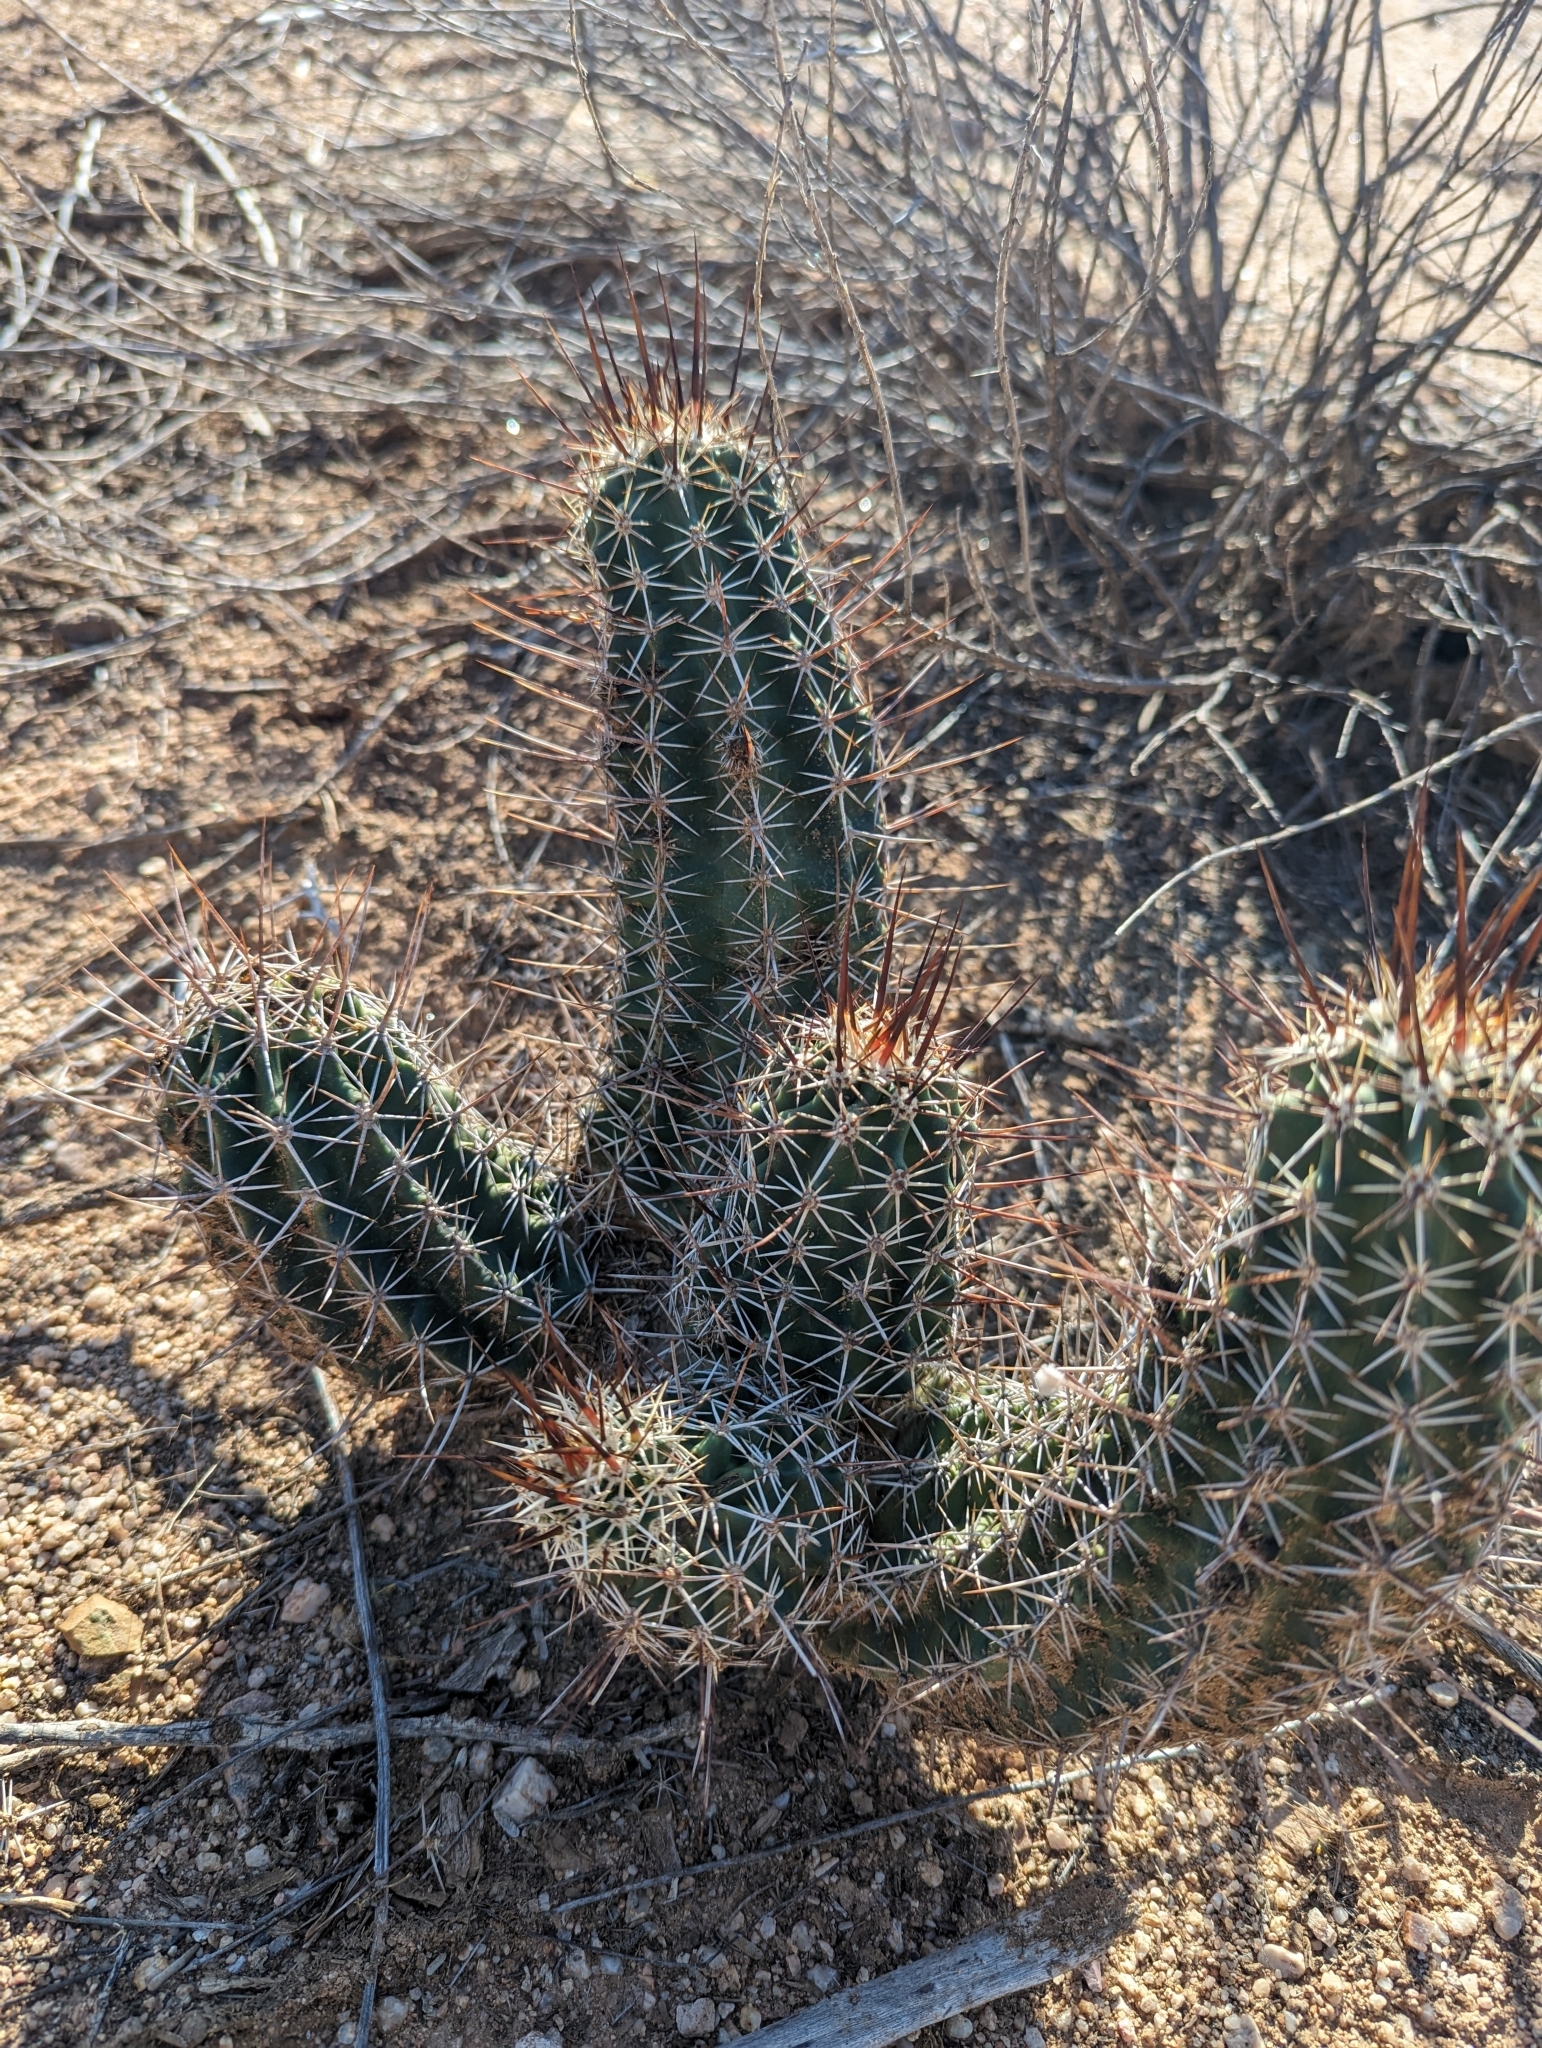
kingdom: Plantae
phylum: Tracheophyta
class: Magnoliopsida
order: Caryophyllales
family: Cactaceae
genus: Echinocereus
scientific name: Echinocereus fendleri
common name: Fendler's hedgehog cactus
